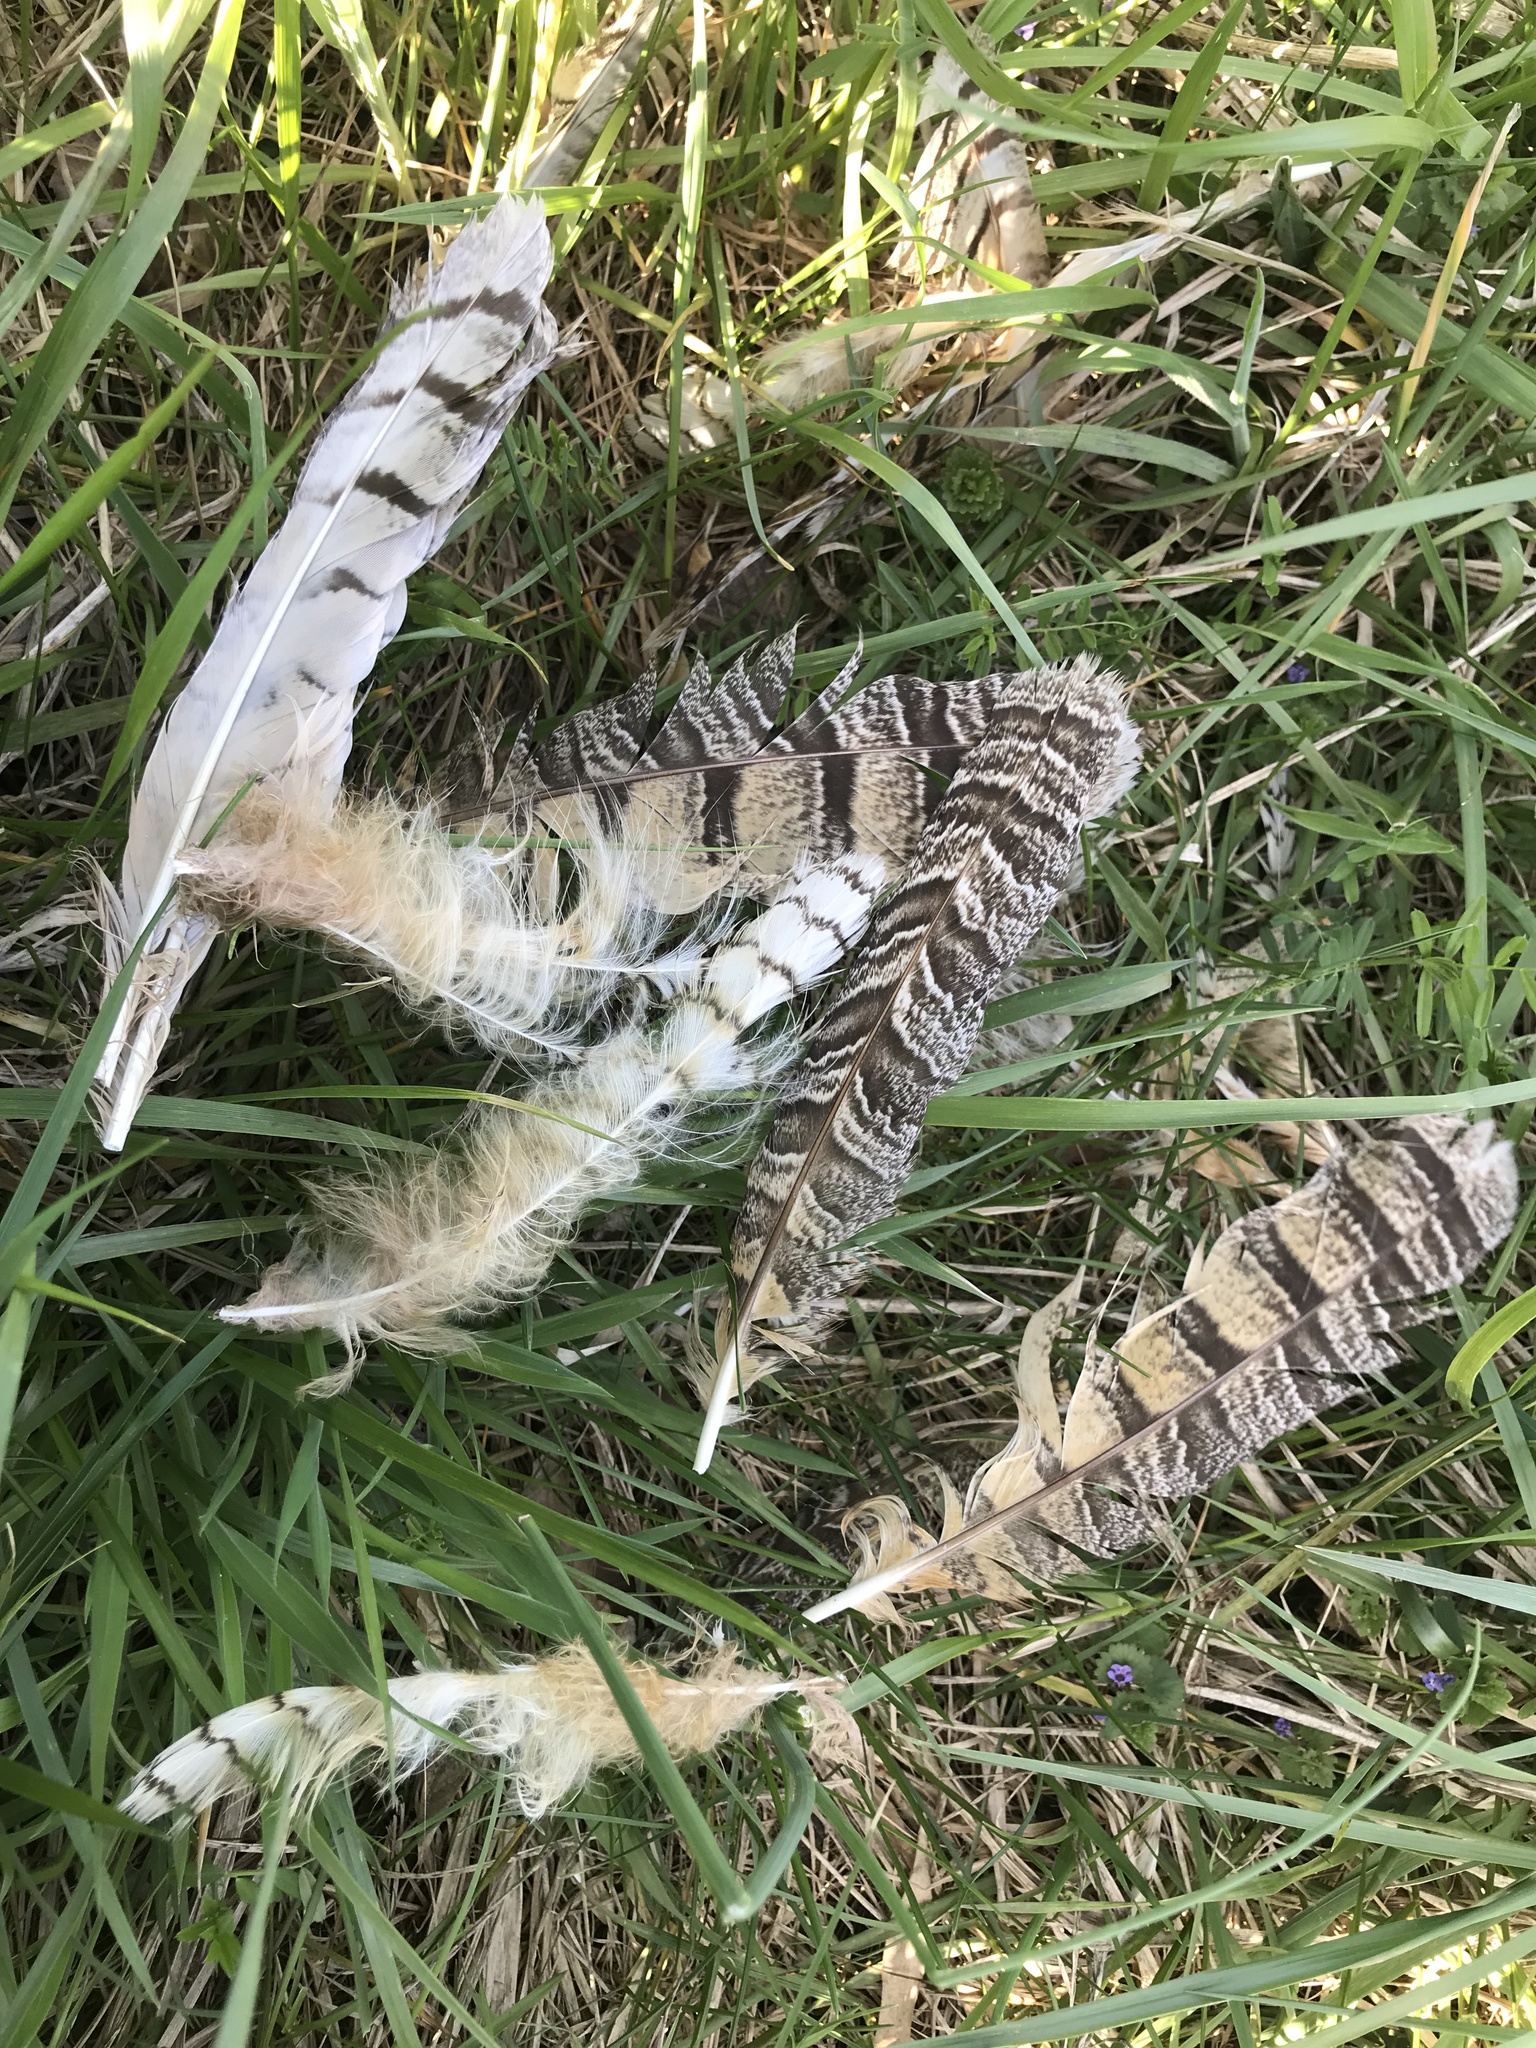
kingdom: Animalia
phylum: Chordata
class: Aves
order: Strigiformes
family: Strigidae
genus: Bubo
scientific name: Bubo virginianus
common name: Great horned owl
